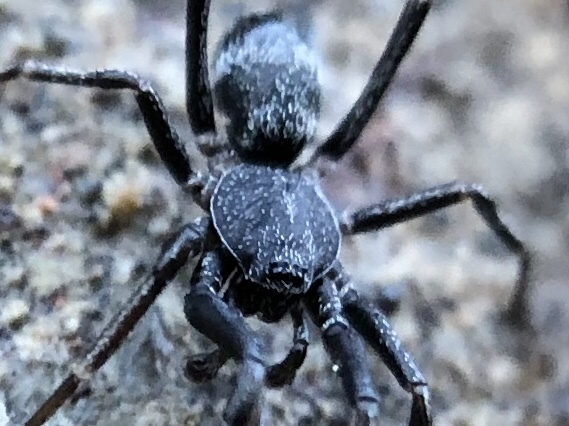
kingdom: Animalia
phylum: Arthropoda
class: Arachnida
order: Araneae
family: Phrurolithidae
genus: Liophrurillus
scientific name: Liophrurillus flavitarsis
